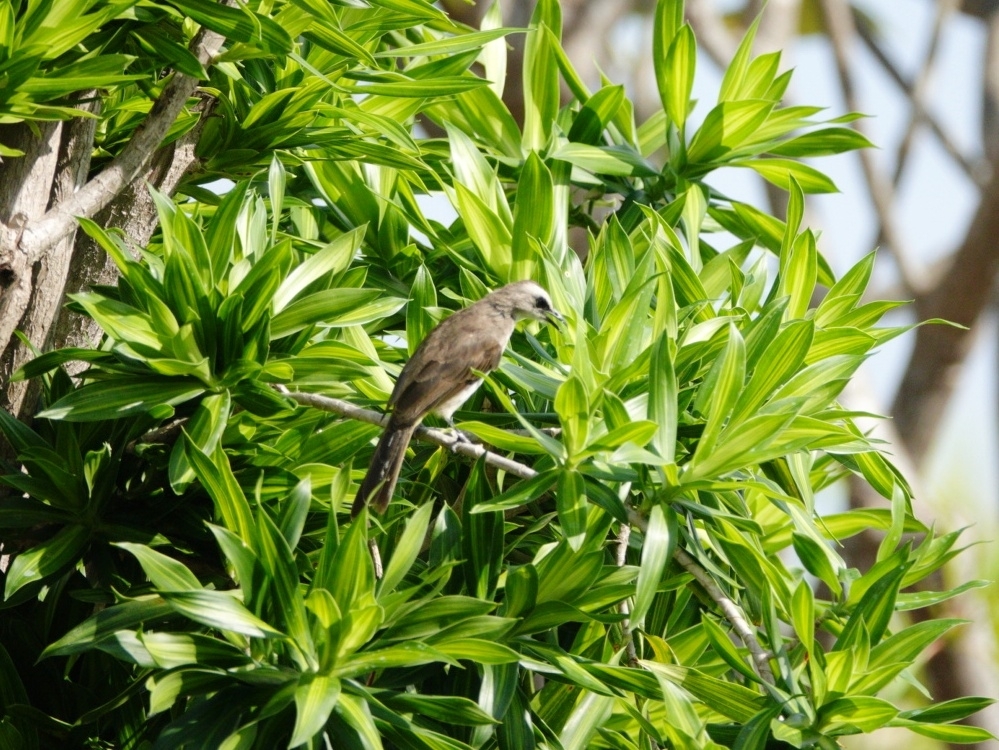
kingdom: Animalia
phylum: Chordata
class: Aves
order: Passeriformes
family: Pycnonotidae
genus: Pycnonotus
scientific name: Pycnonotus goiavier
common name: Yellow-vented bulbul
